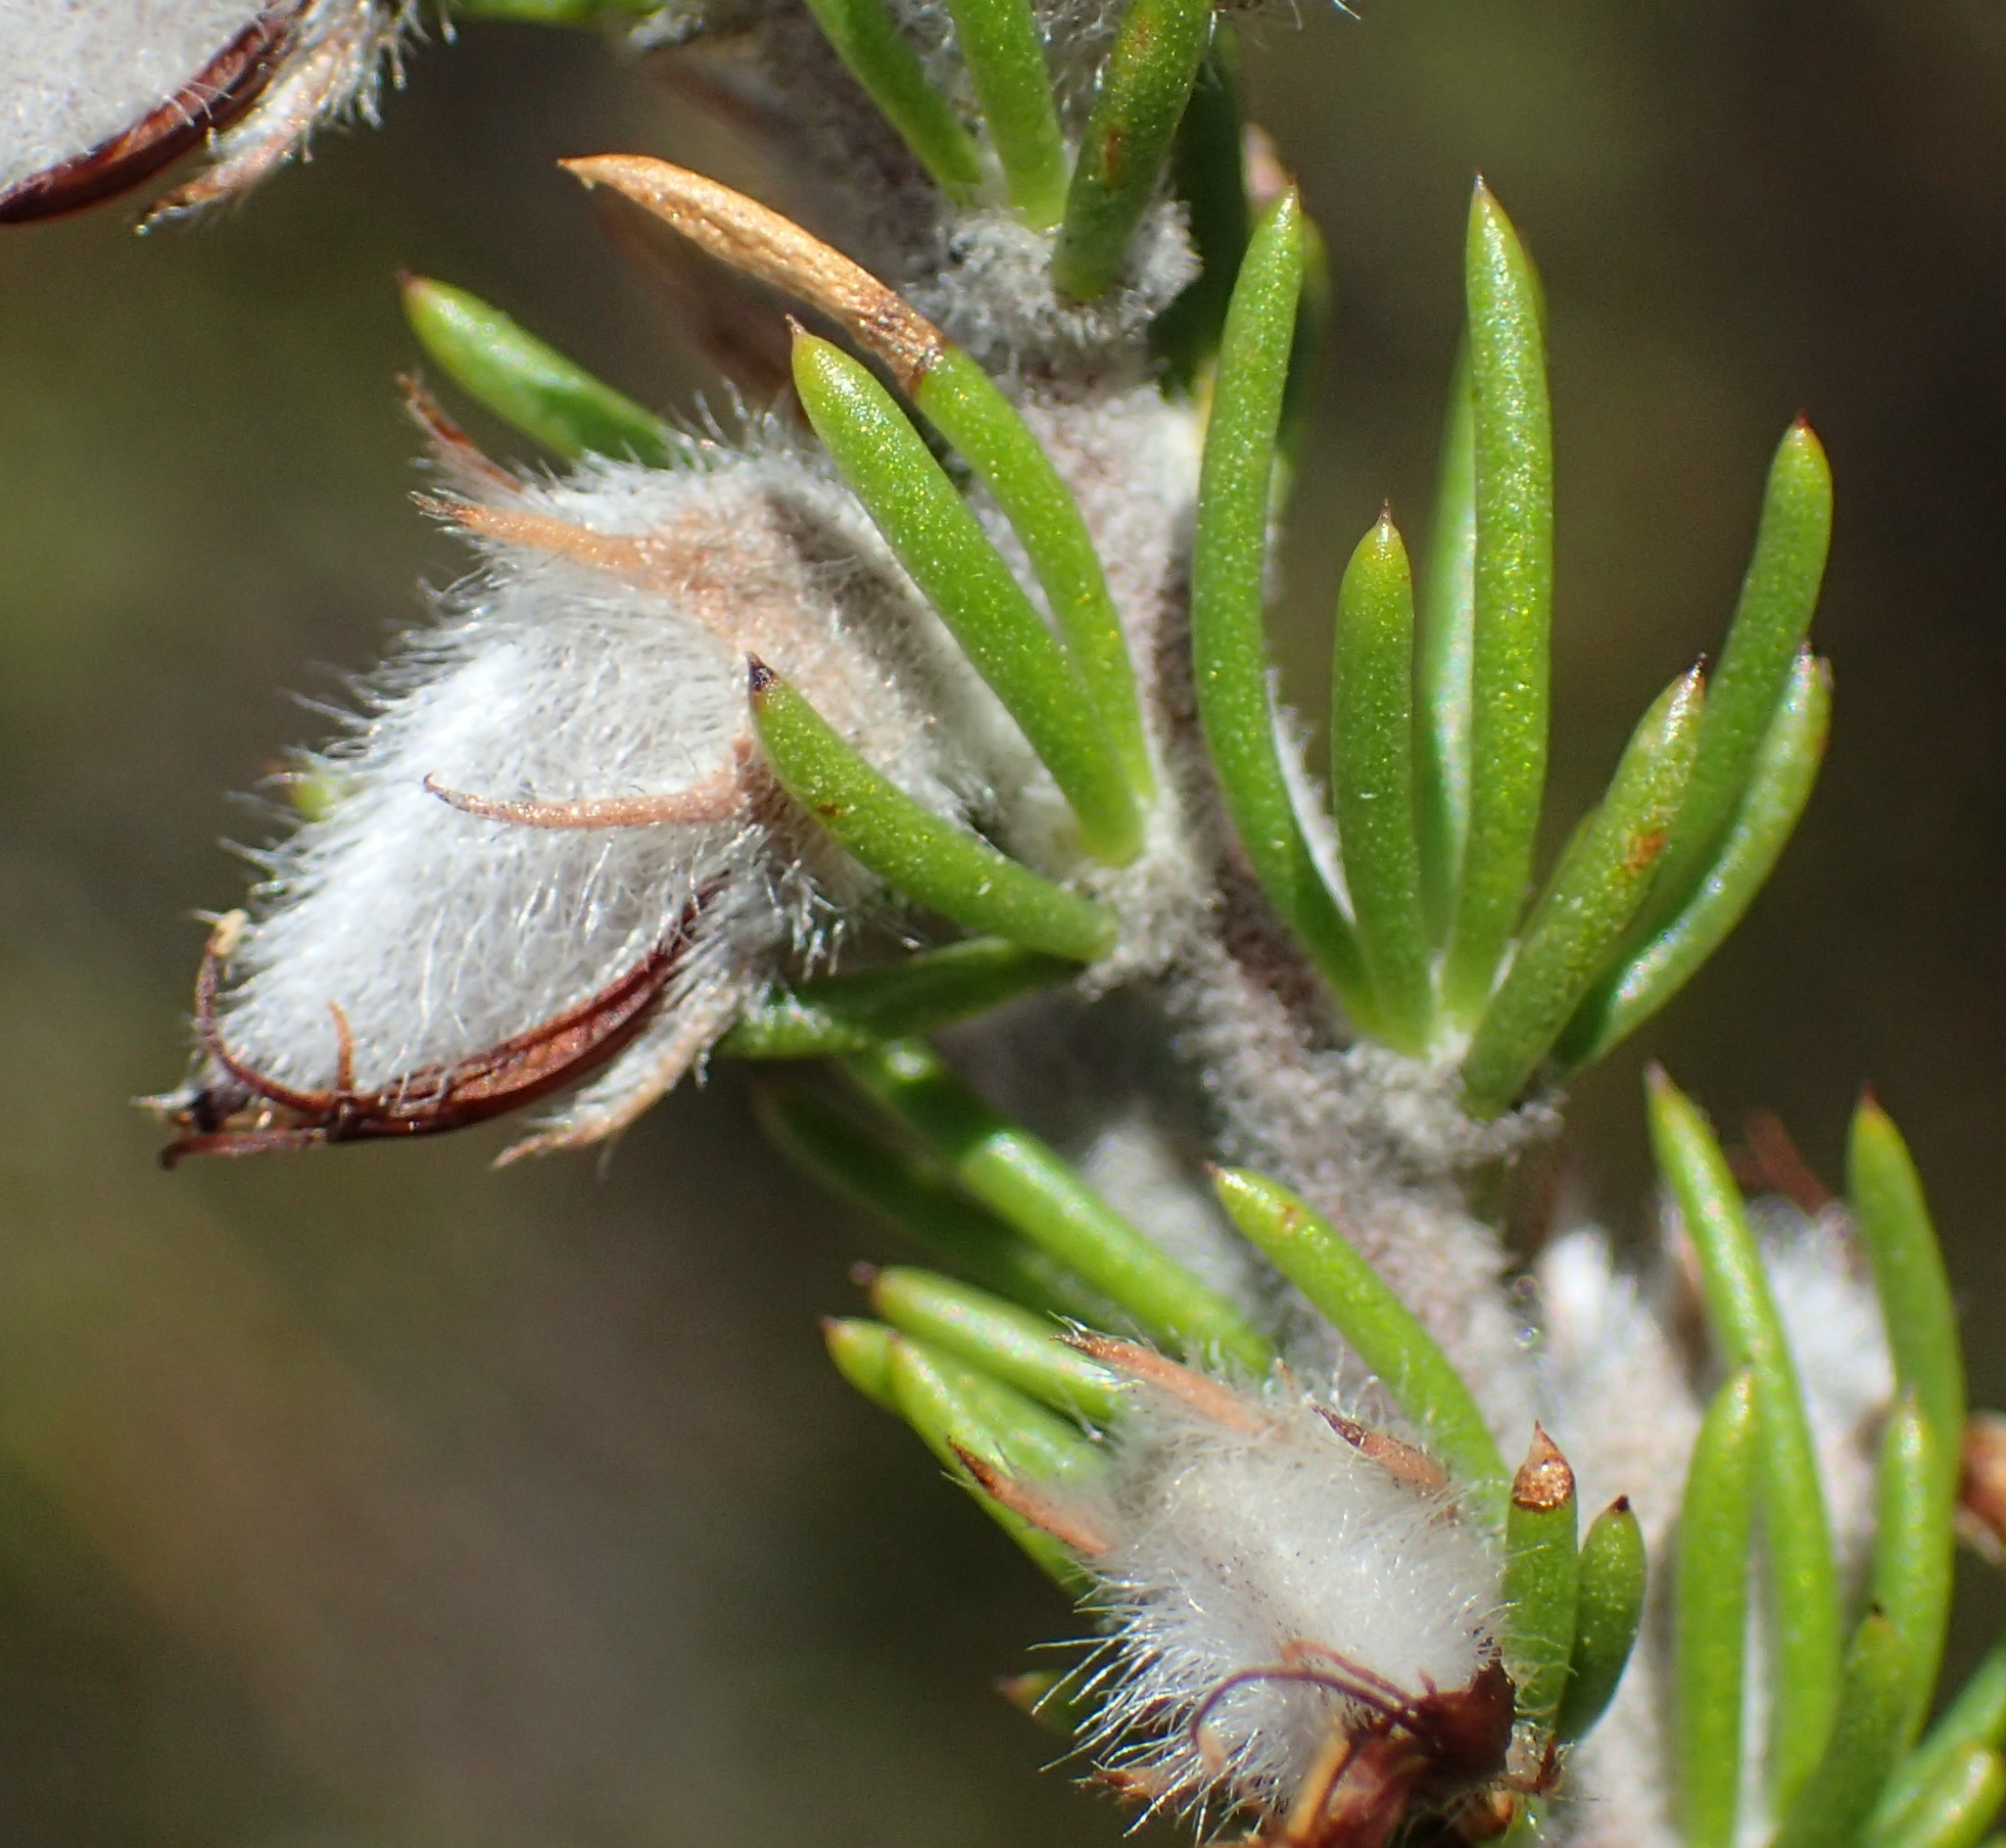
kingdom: Plantae
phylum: Tracheophyta
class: Magnoliopsida
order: Fabales
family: Fabaceae
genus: Aspalathus
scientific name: Aspalathus congesta
